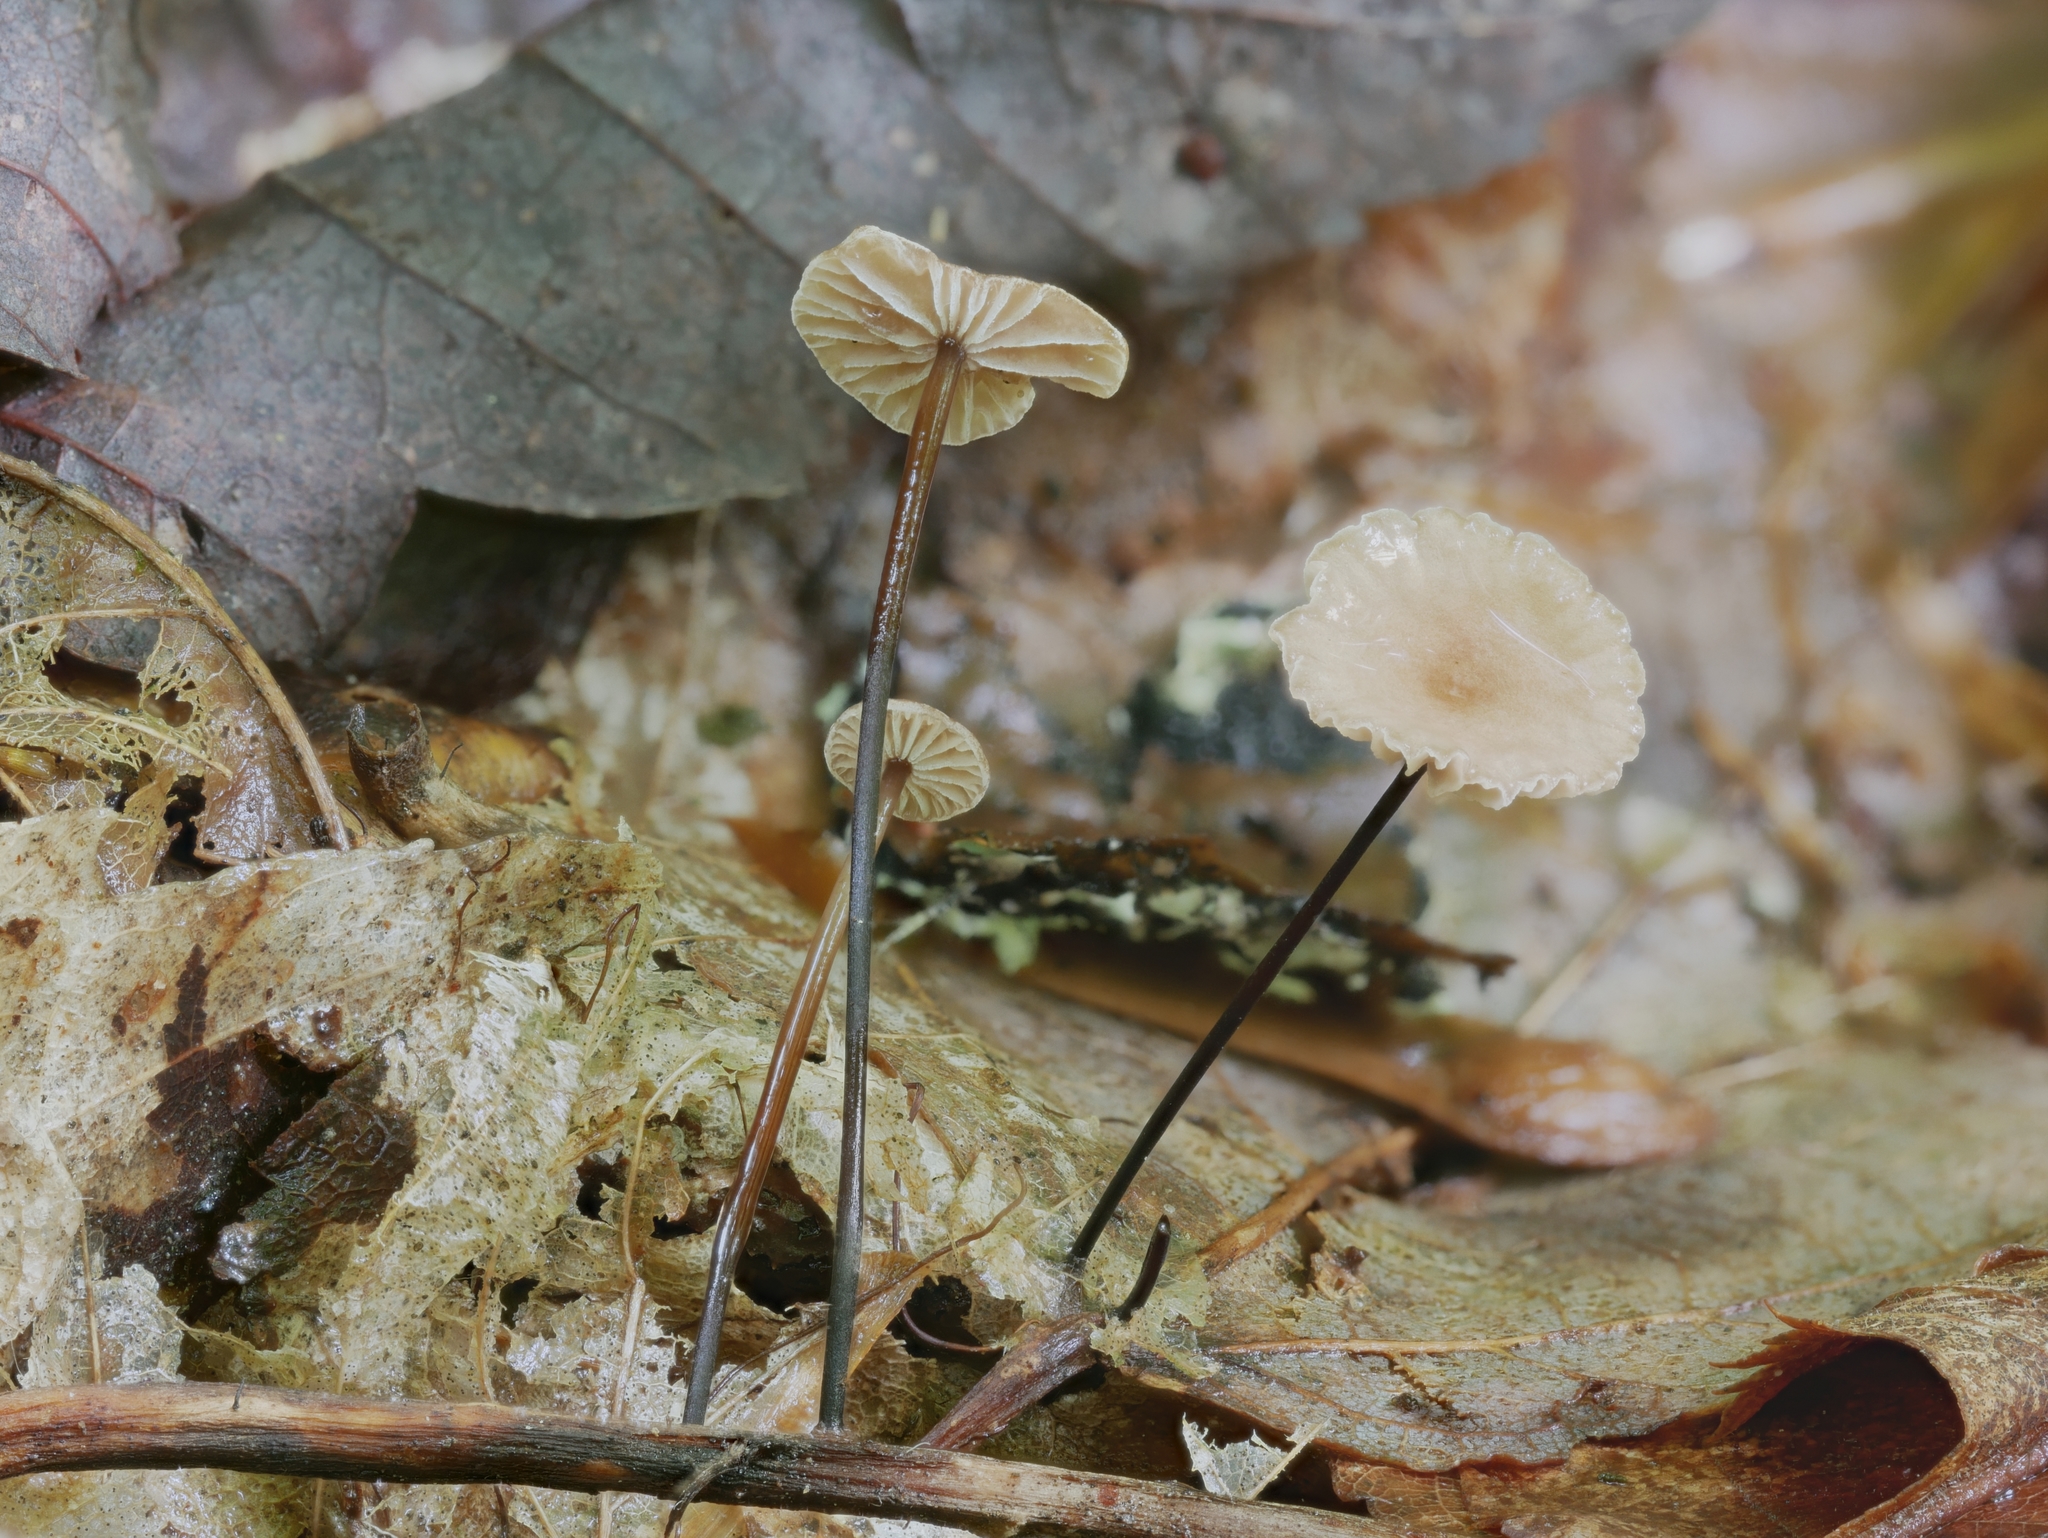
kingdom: Fungi
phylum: Basidiomycota
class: Agaricomycetes
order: Agaricales
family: Omphalotaceae
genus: Gymnopus
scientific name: Gymnopus androsaceus
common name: Horse-hair fungus
